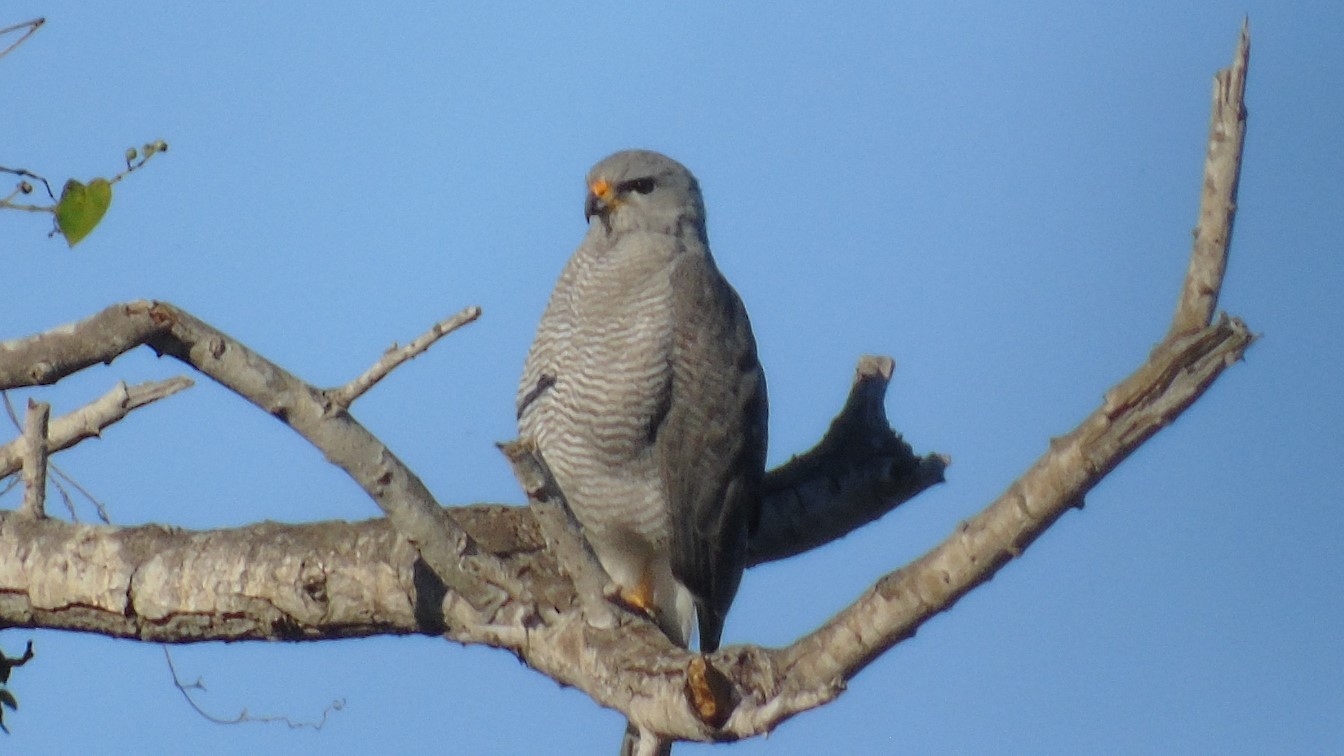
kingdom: Animalia
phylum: Chordata
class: Aves
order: Accipitriformes
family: Accipitridae
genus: Buteo
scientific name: Buteo nitidus
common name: Grey-lined hawk
